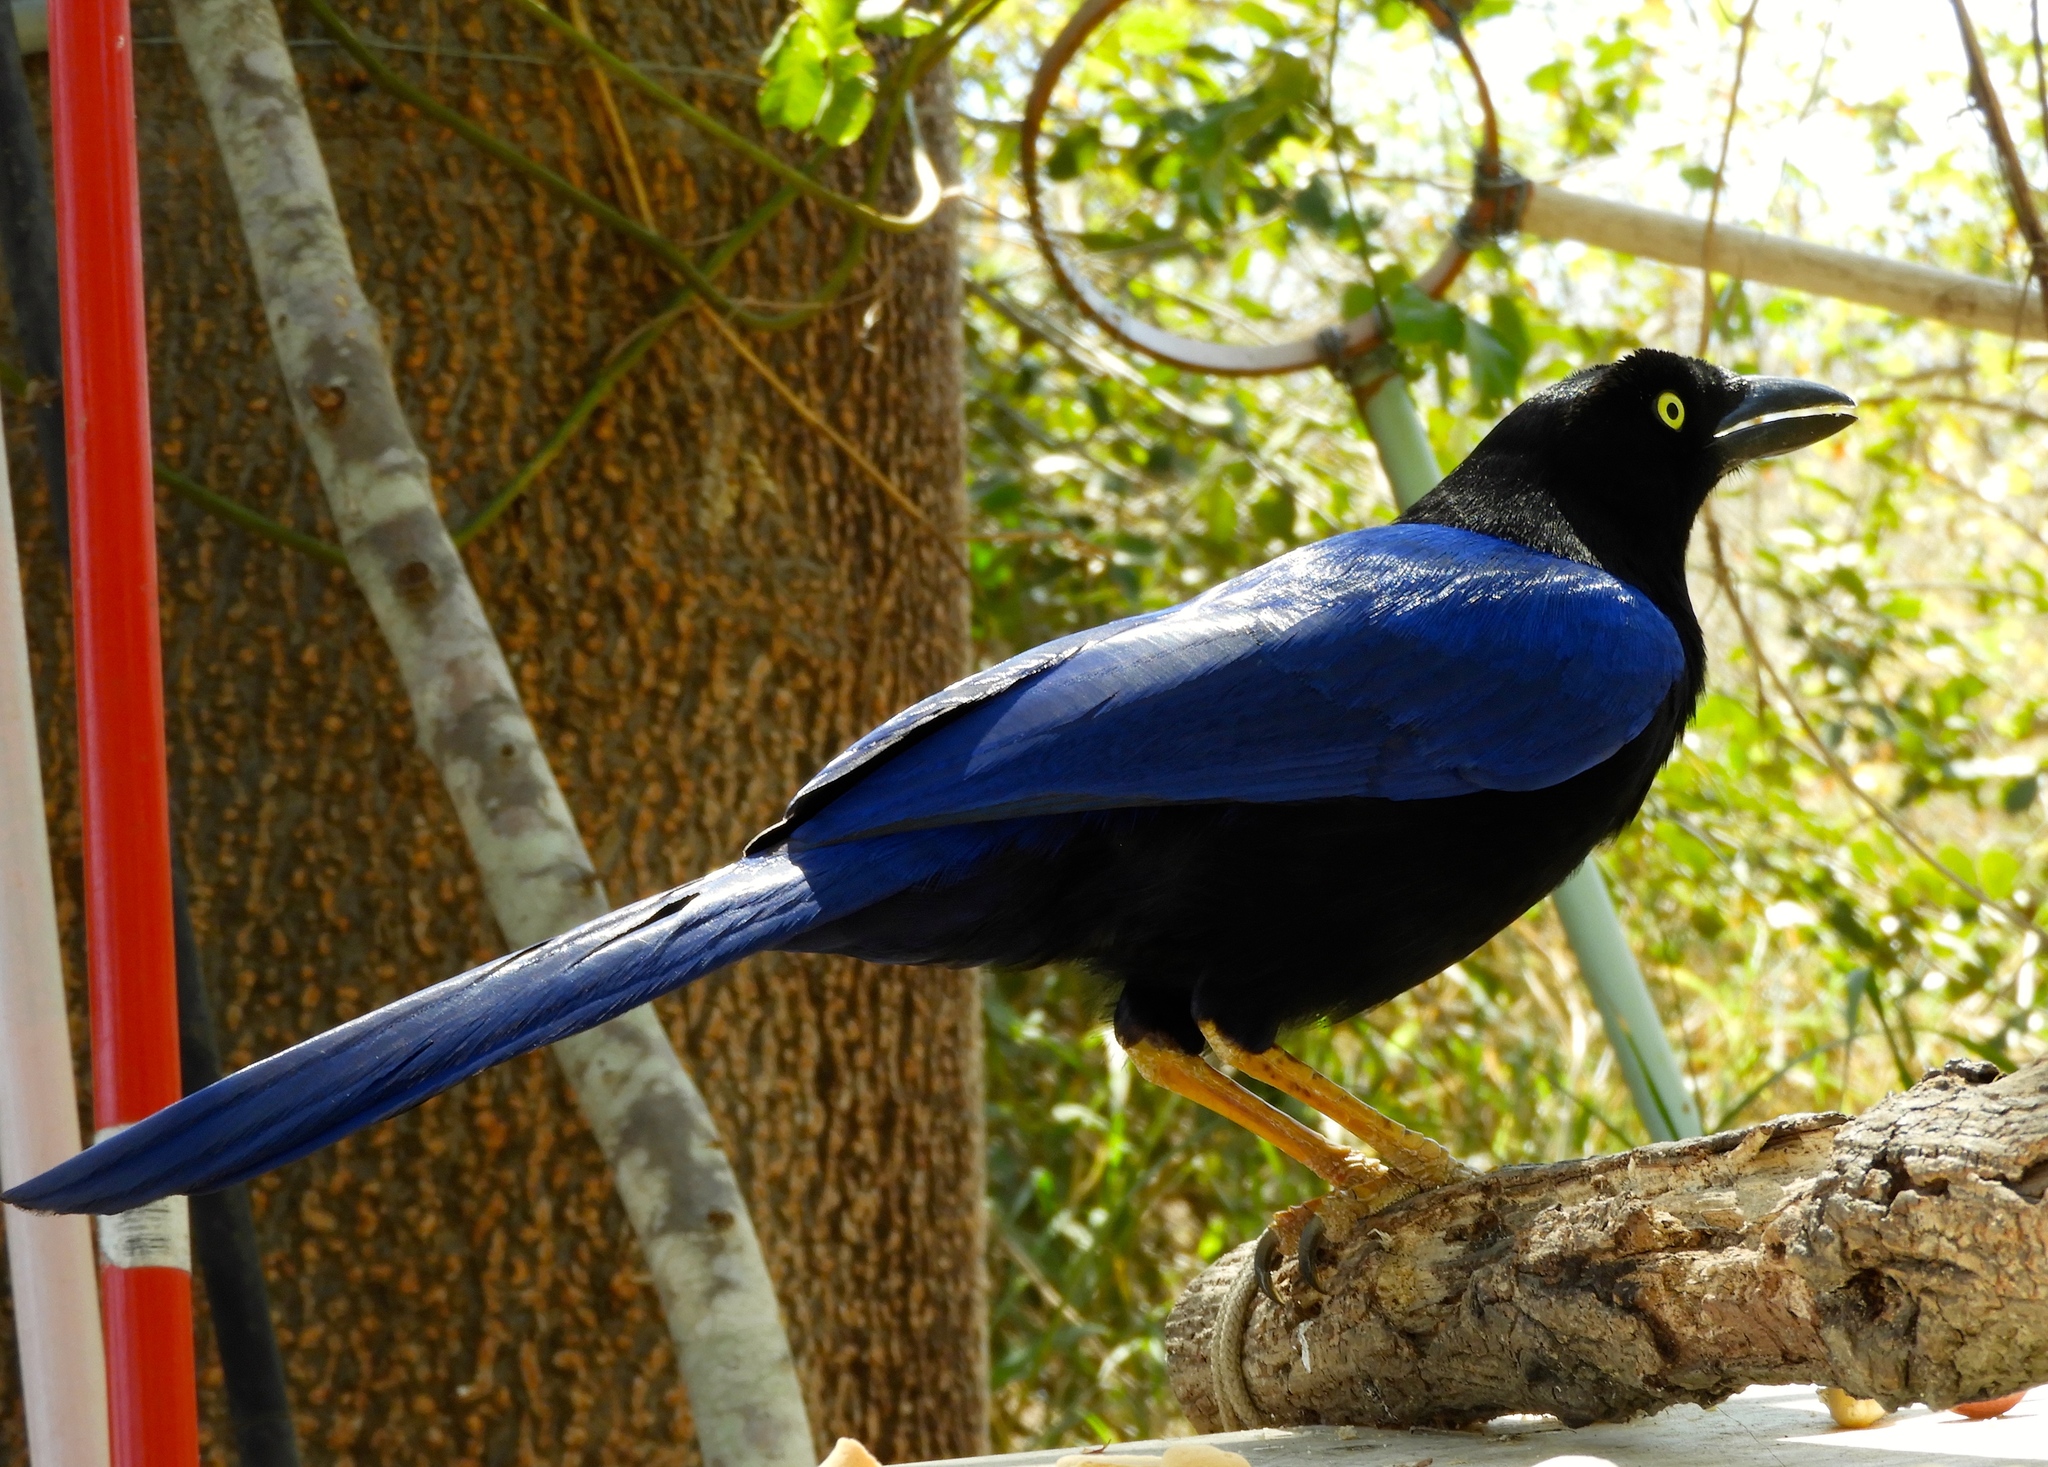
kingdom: Animalia
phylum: Chordata
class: Aves
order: Passeriformes
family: Corvidae
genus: Cyanocorax
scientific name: Cyanocorax beecheii
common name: Purplish-backed jay
